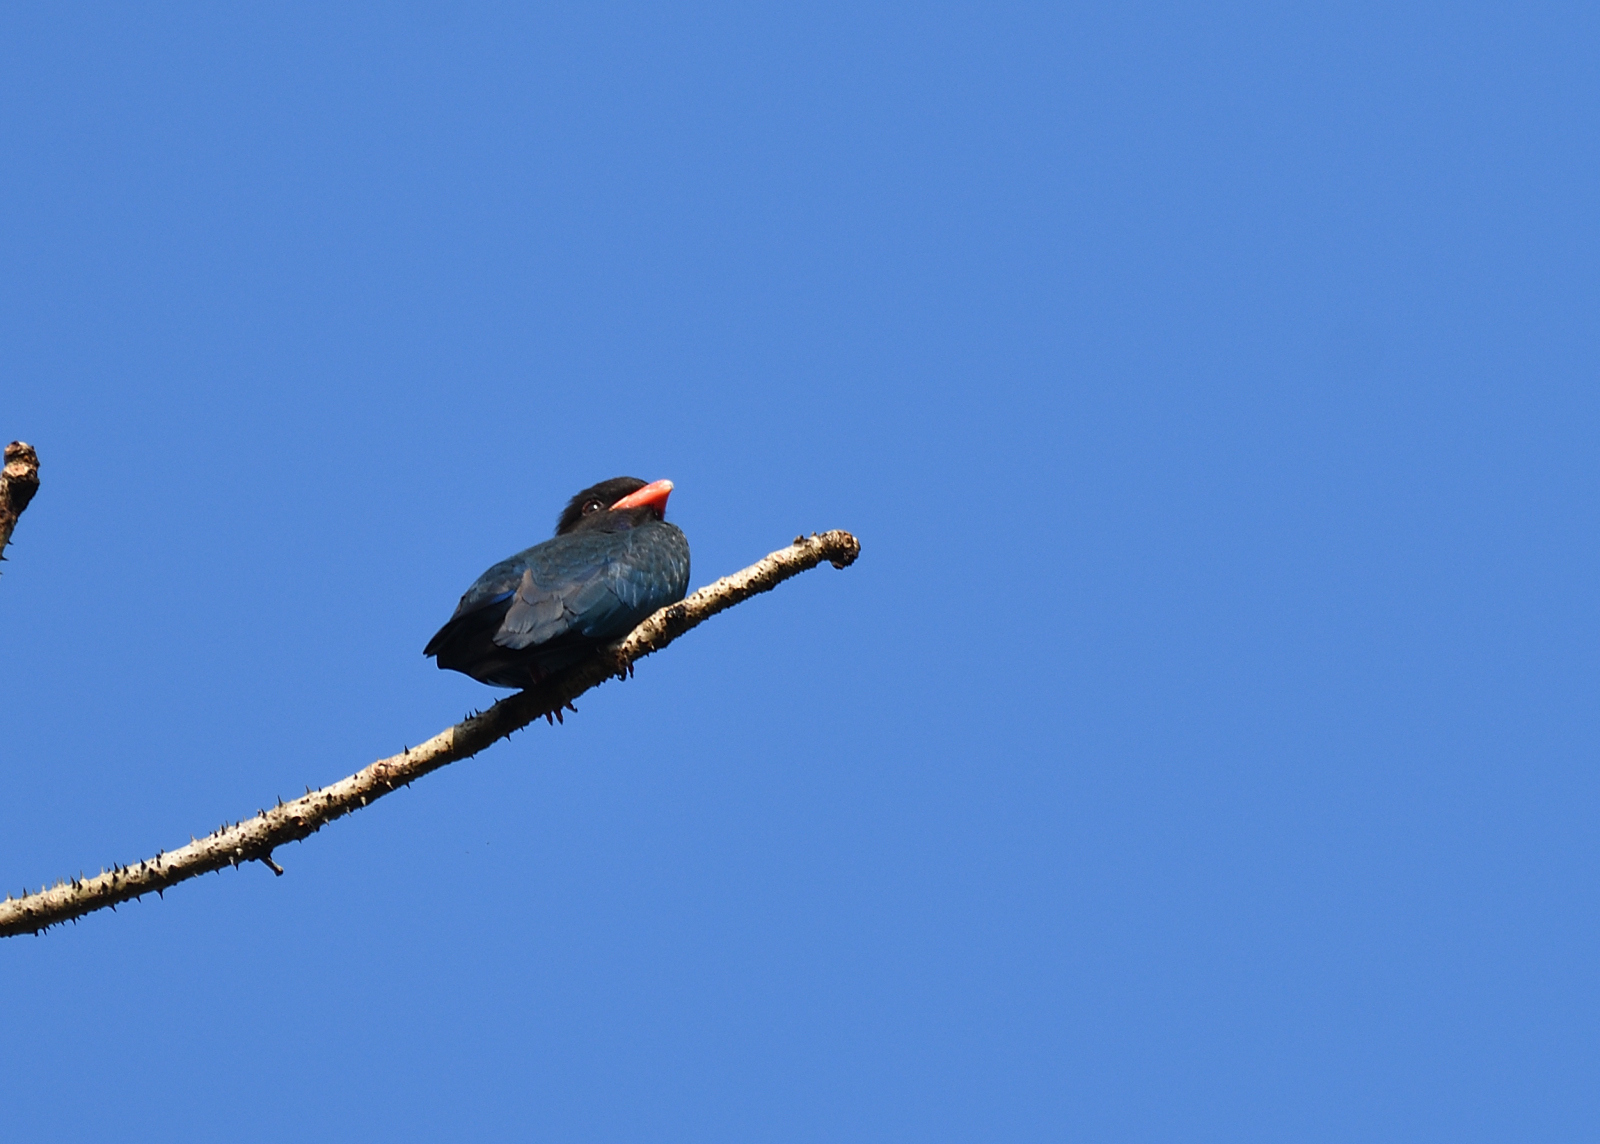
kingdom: Animalia
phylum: Chordata
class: Aves
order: Coraciiformes
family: Coraciidae
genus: Eurystomus
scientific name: Eurystomus orientalis
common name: Oriental dollarbird
